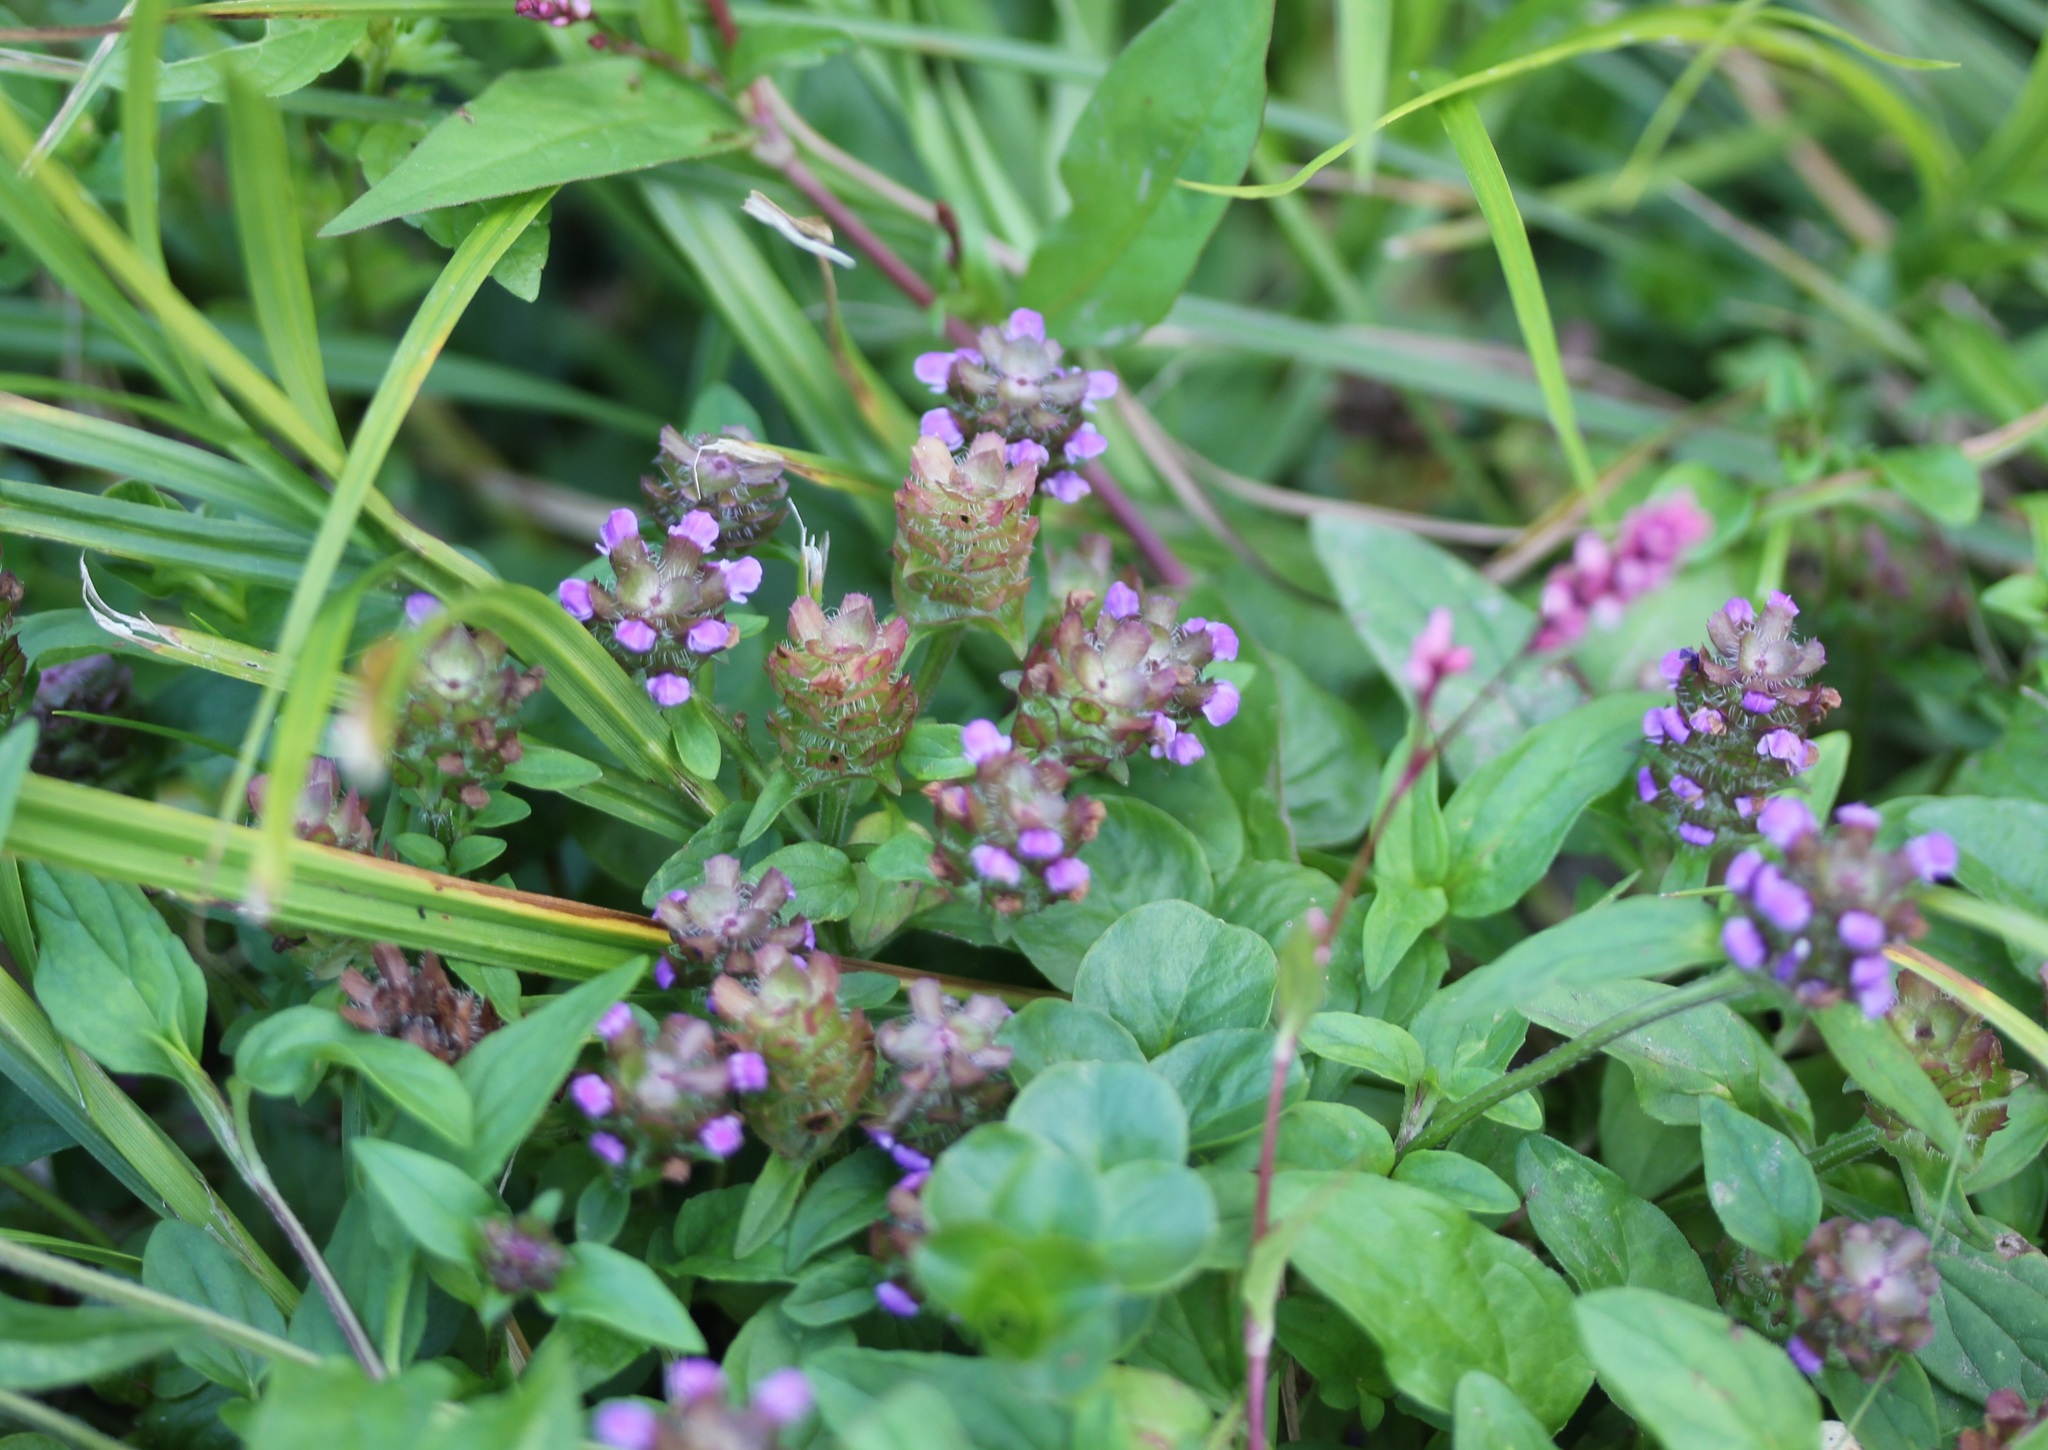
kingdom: Plantae
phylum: Tracheophyta
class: Magnoliopsida
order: Lamiales
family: Lamiaceae
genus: Prunella
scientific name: Prunella vulgaris
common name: Heal-all
